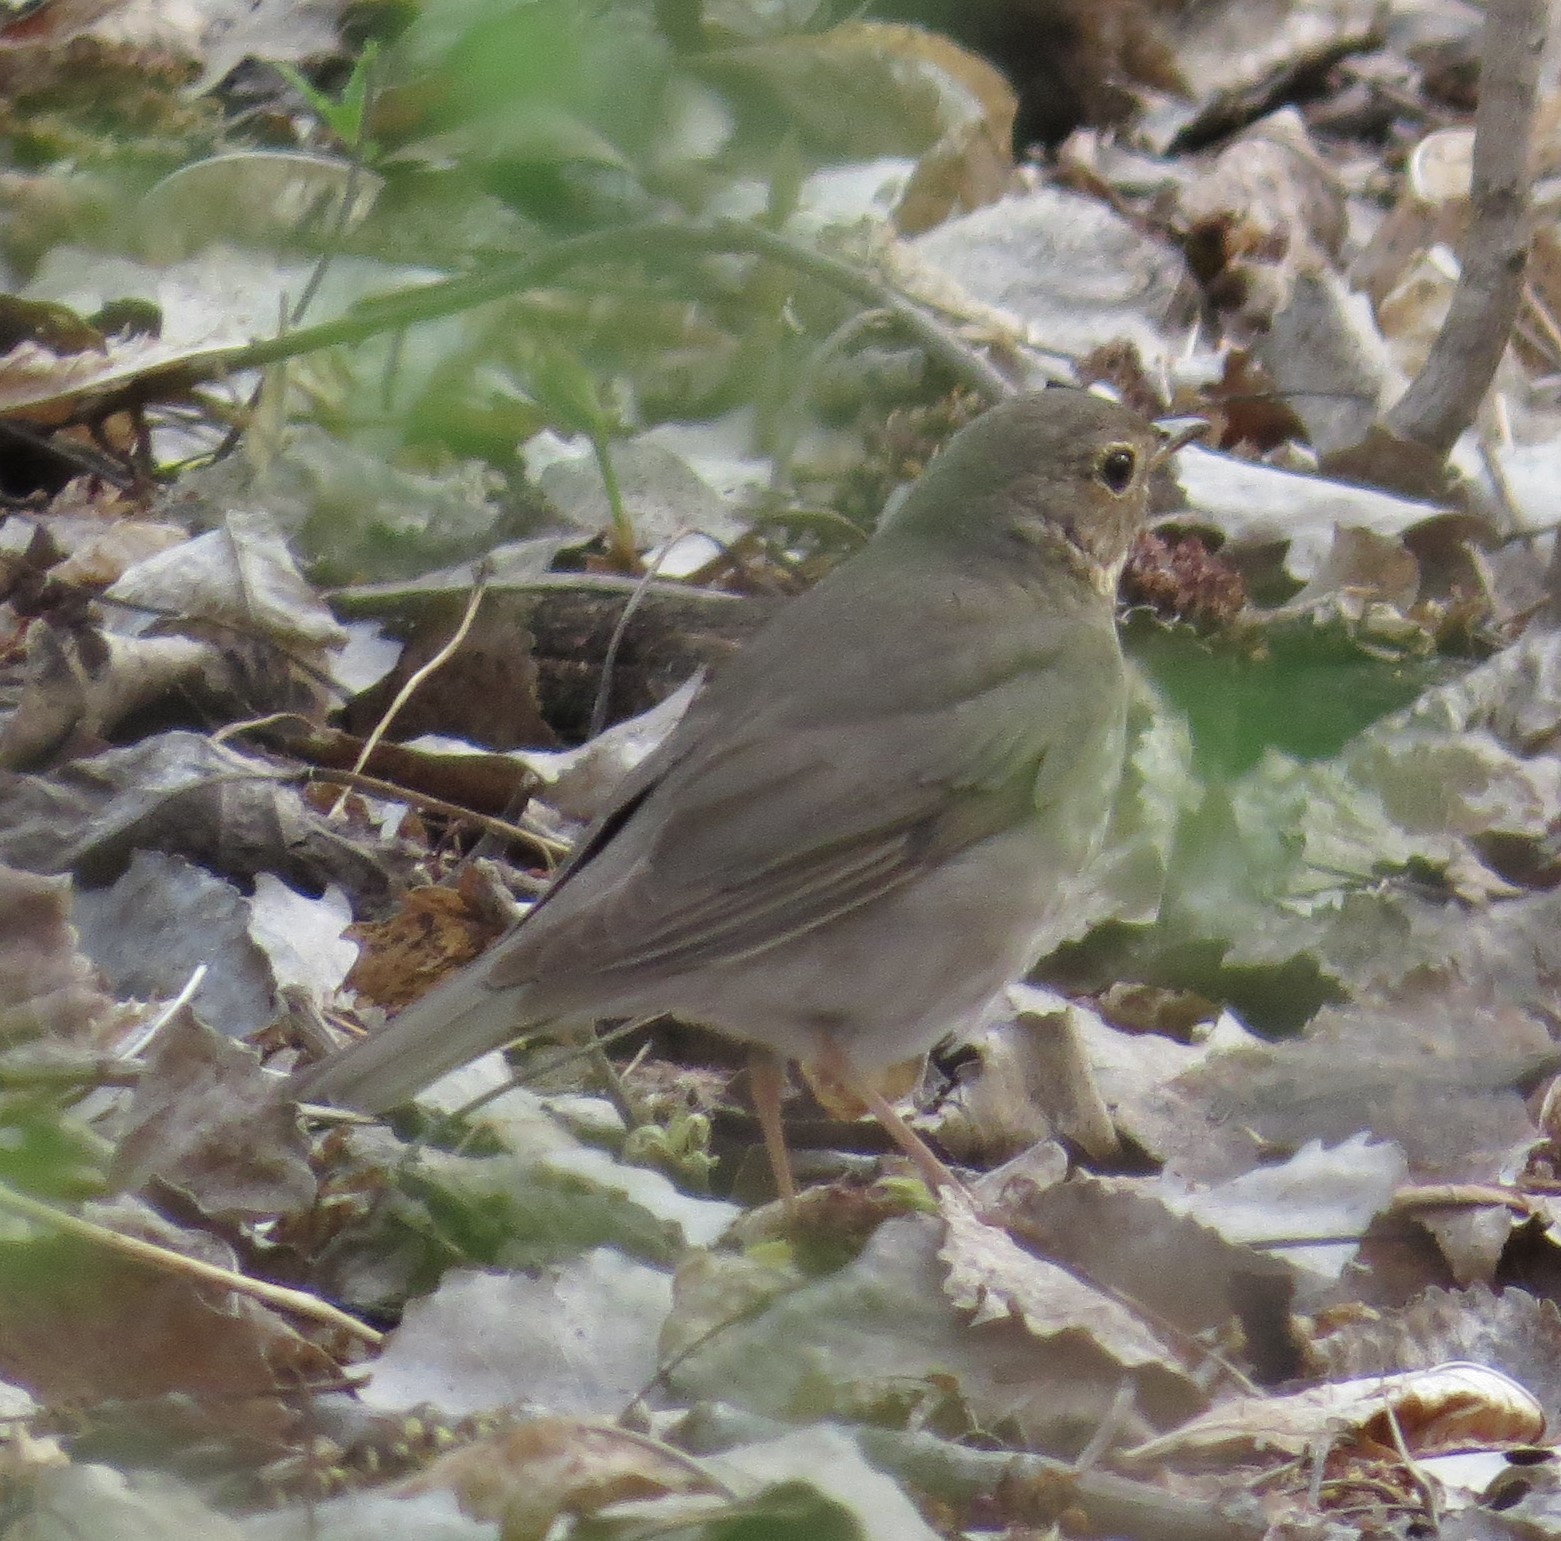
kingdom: Animalia
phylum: Chordata
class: Aves
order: Passeriformes
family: Turdidae
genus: Catharus
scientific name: Catharus ustulatus
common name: Swainson's thrush
